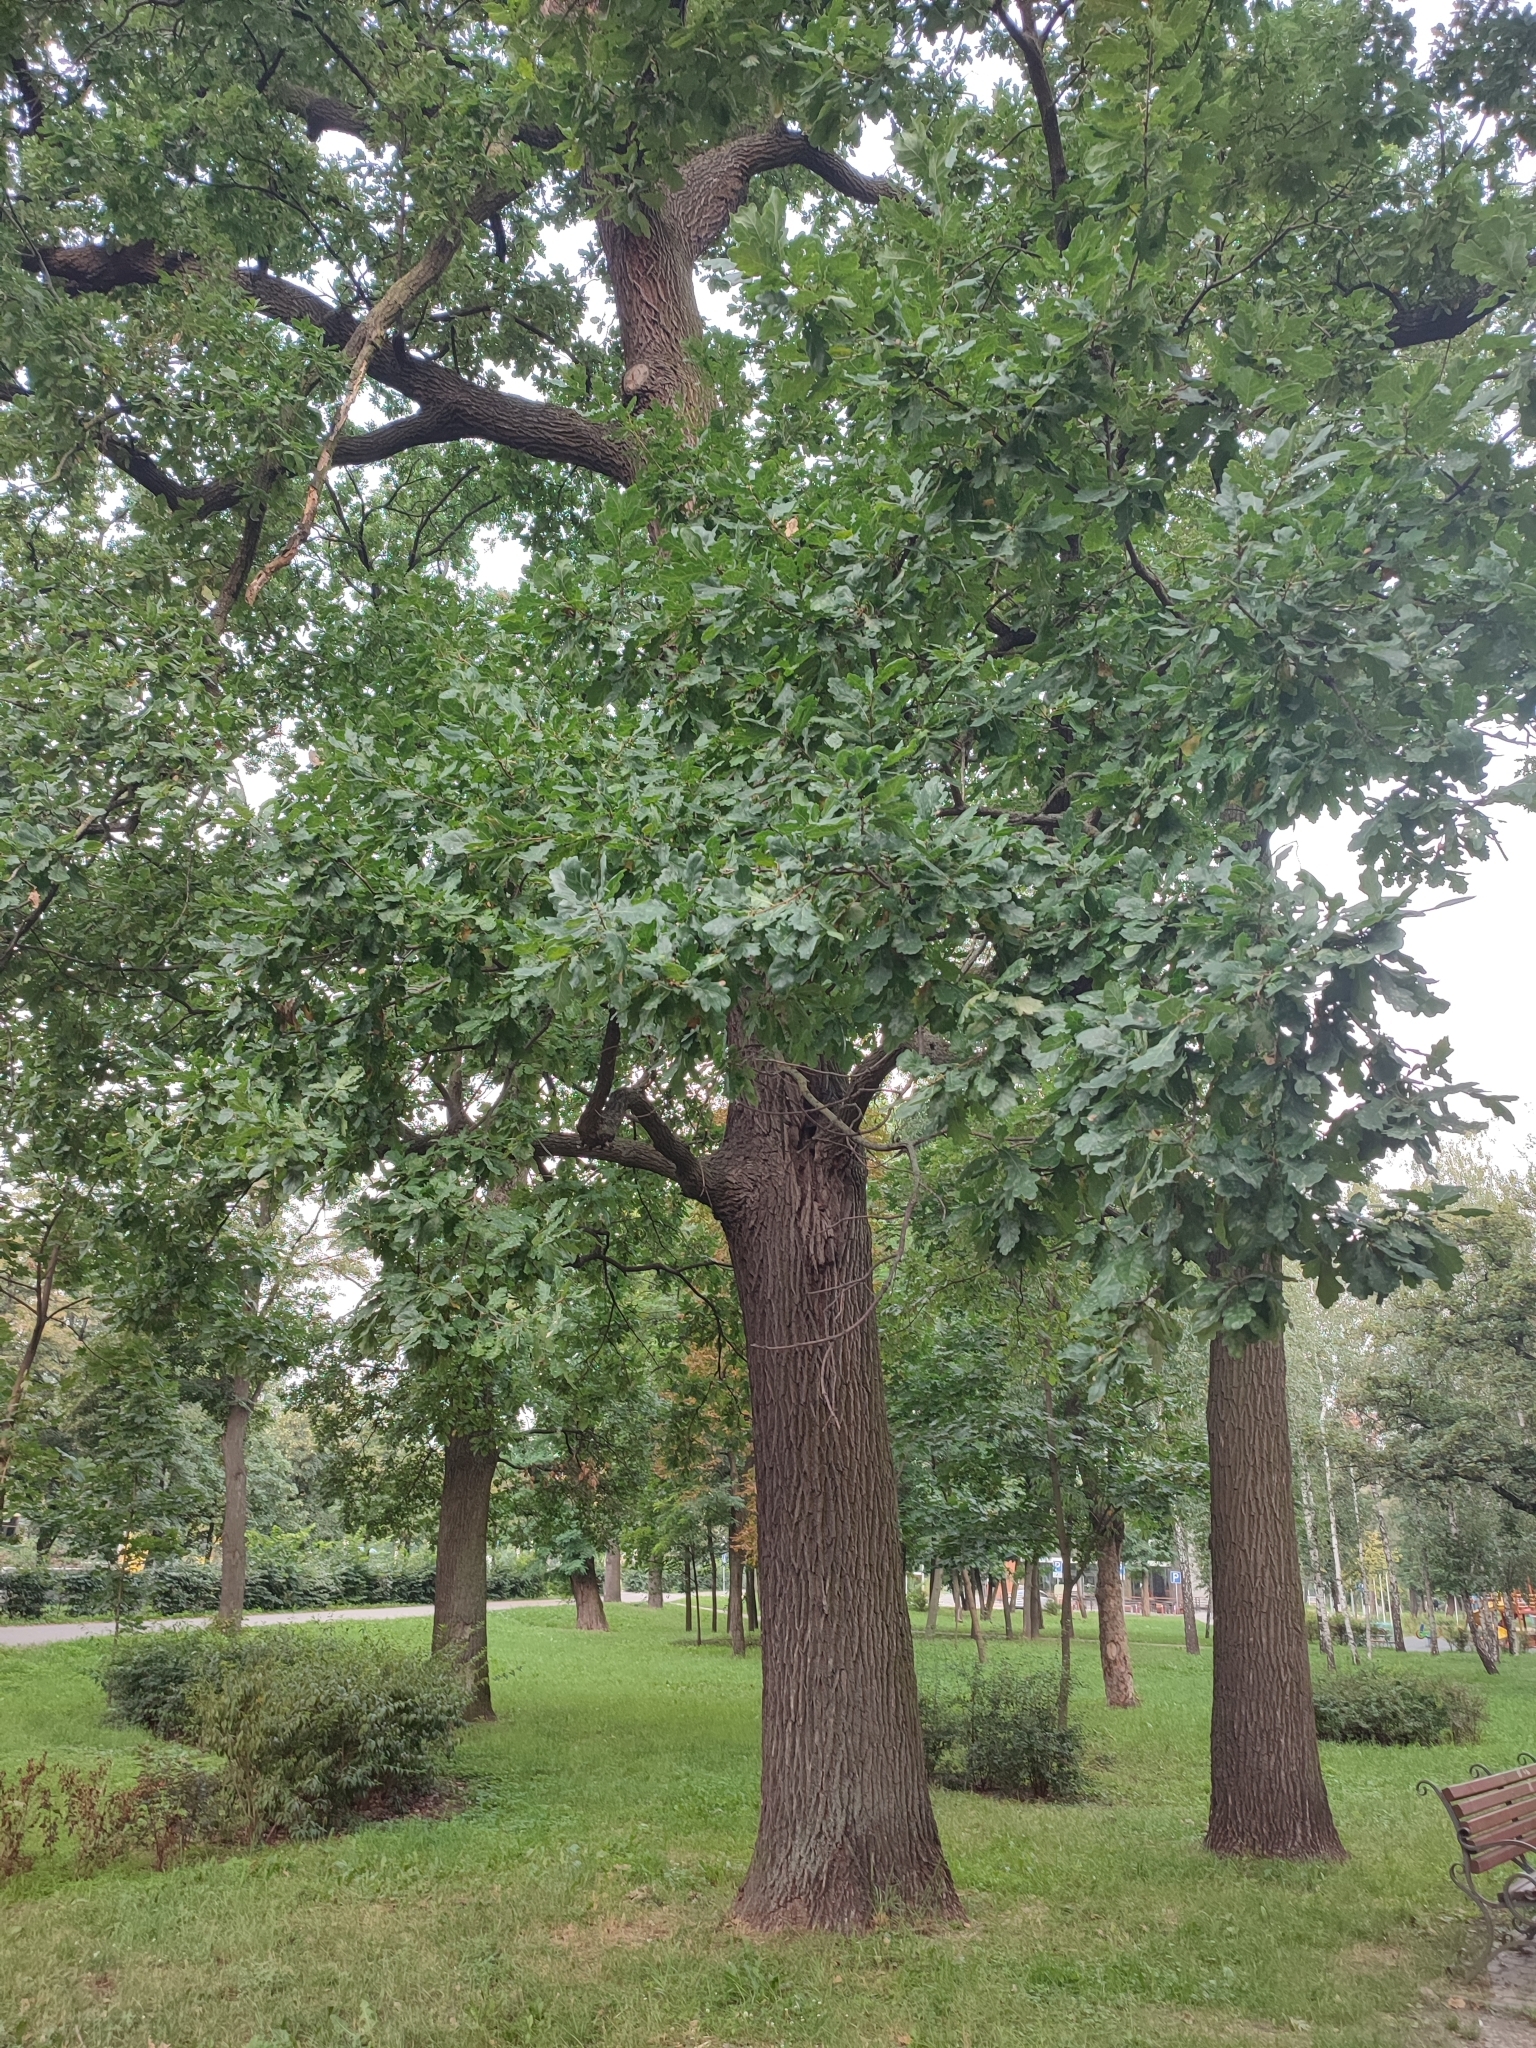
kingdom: Plantae
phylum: Tracheophyta
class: Magnoliopsida
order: Fagales
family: Fagaceae
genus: Quercus
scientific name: Quercus robur
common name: Pedunculate oak
